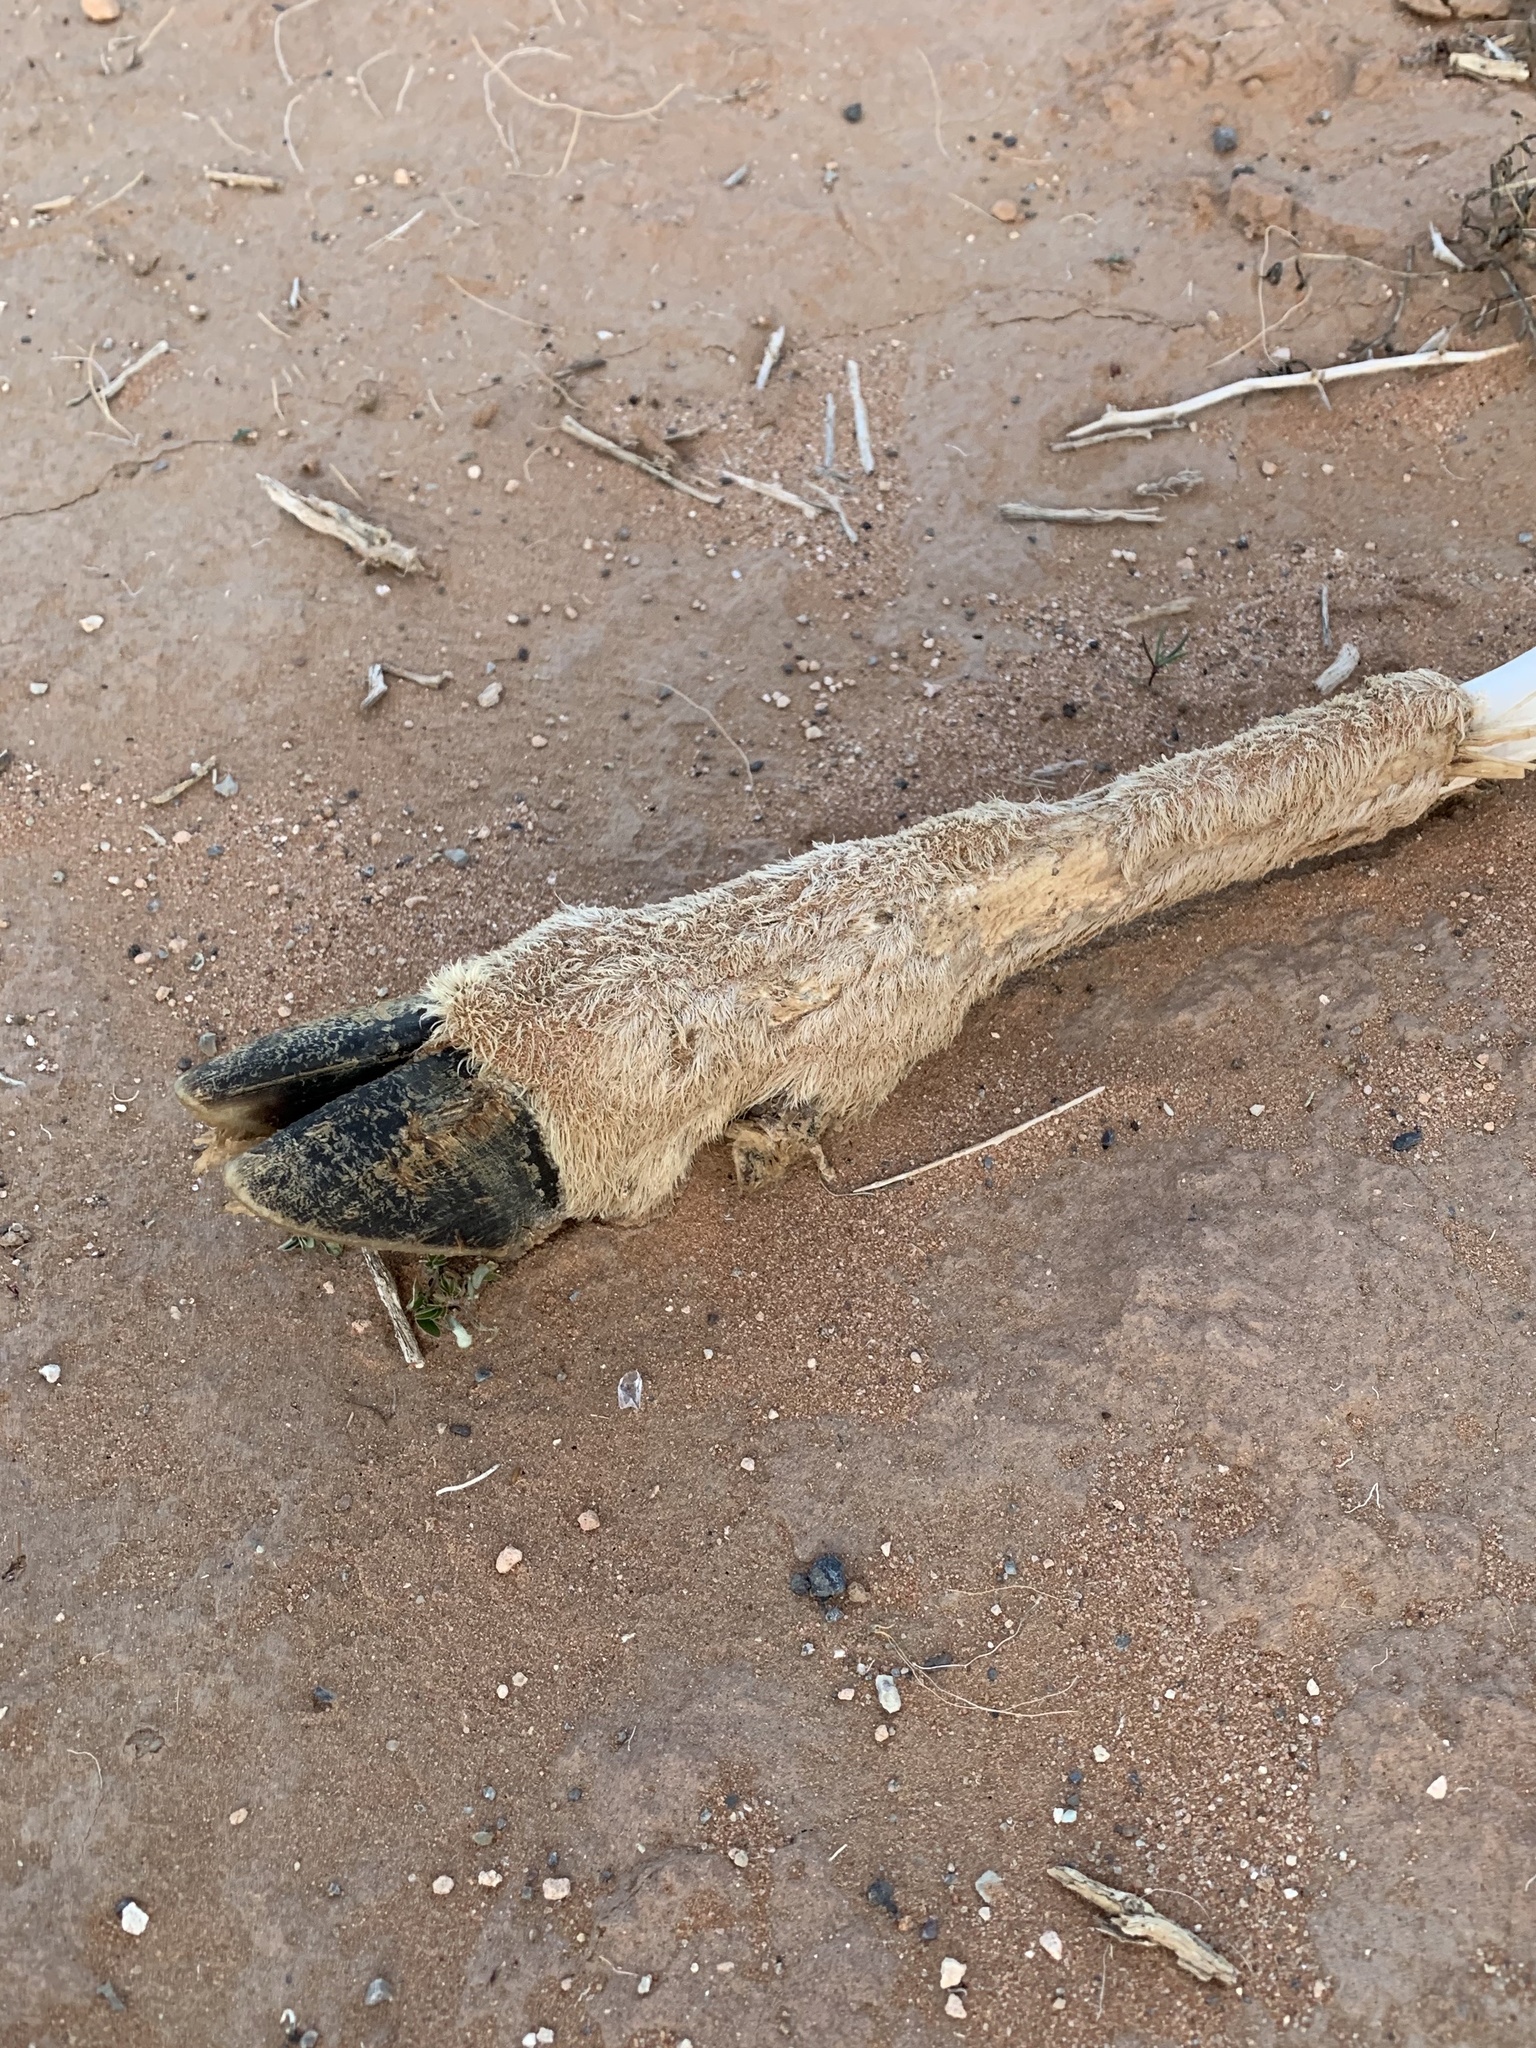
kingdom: Animalia
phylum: Chordata
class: Mammalia
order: Artiodactyla
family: Cervidae
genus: Odocoileus
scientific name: Odocoileus hemionus
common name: Mule deer
